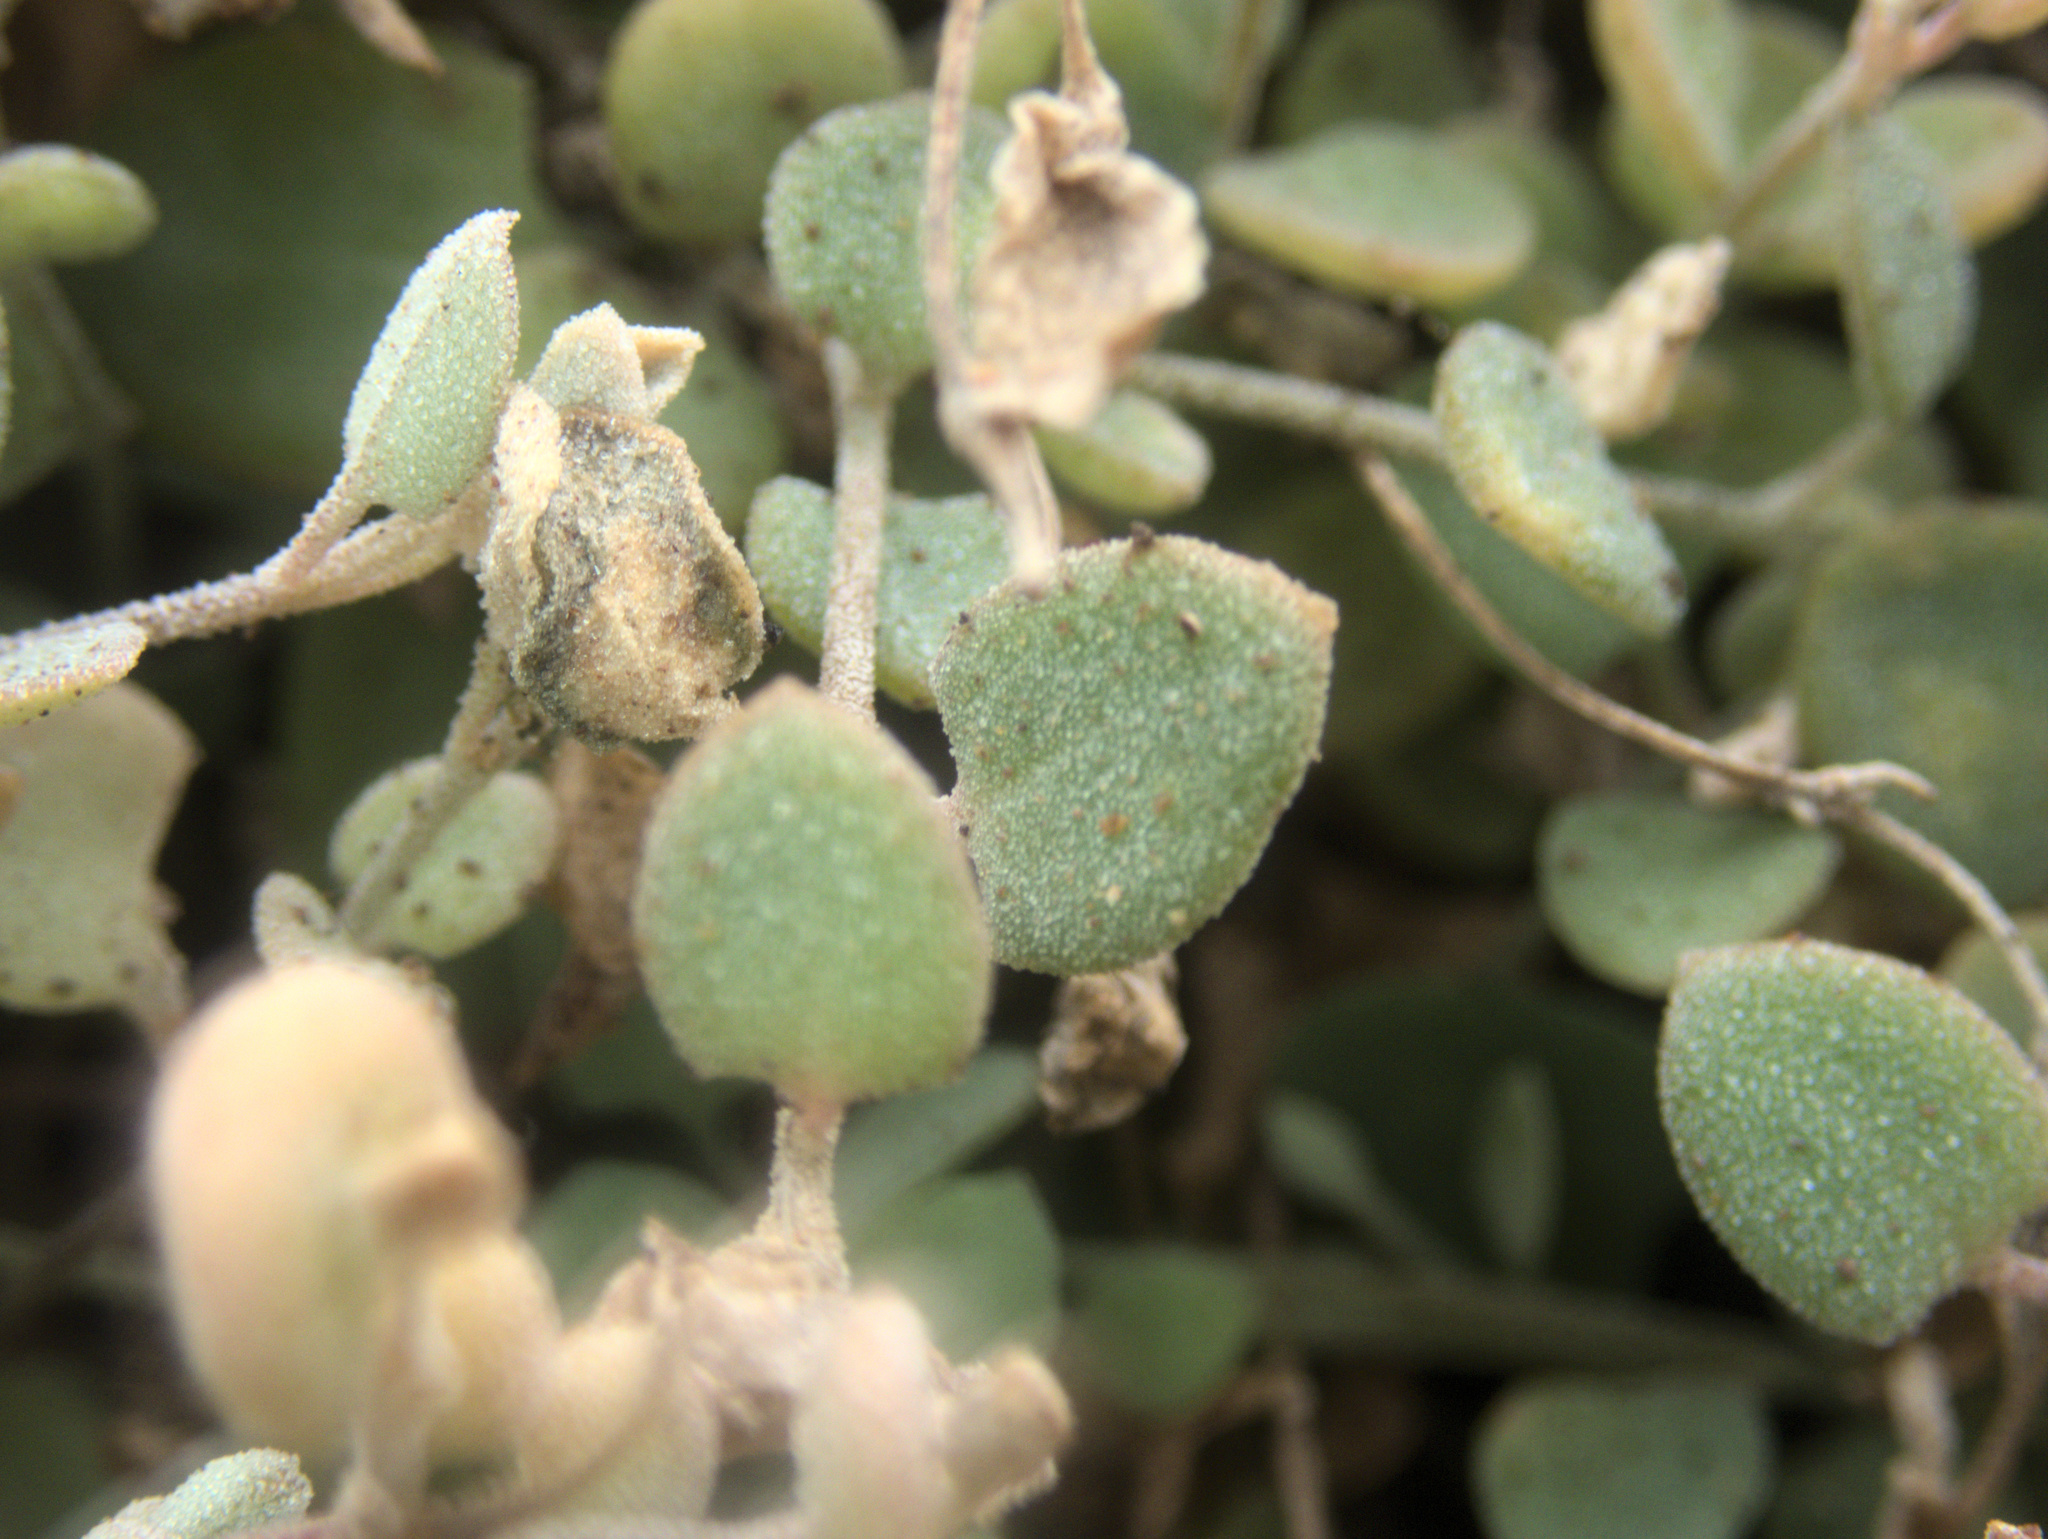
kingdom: Plantae
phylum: Tracheophyta
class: Magnoliopsida
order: Caryophyllales
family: Amaranthaceae
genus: Chenopodium
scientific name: Chenopodium triandrum
